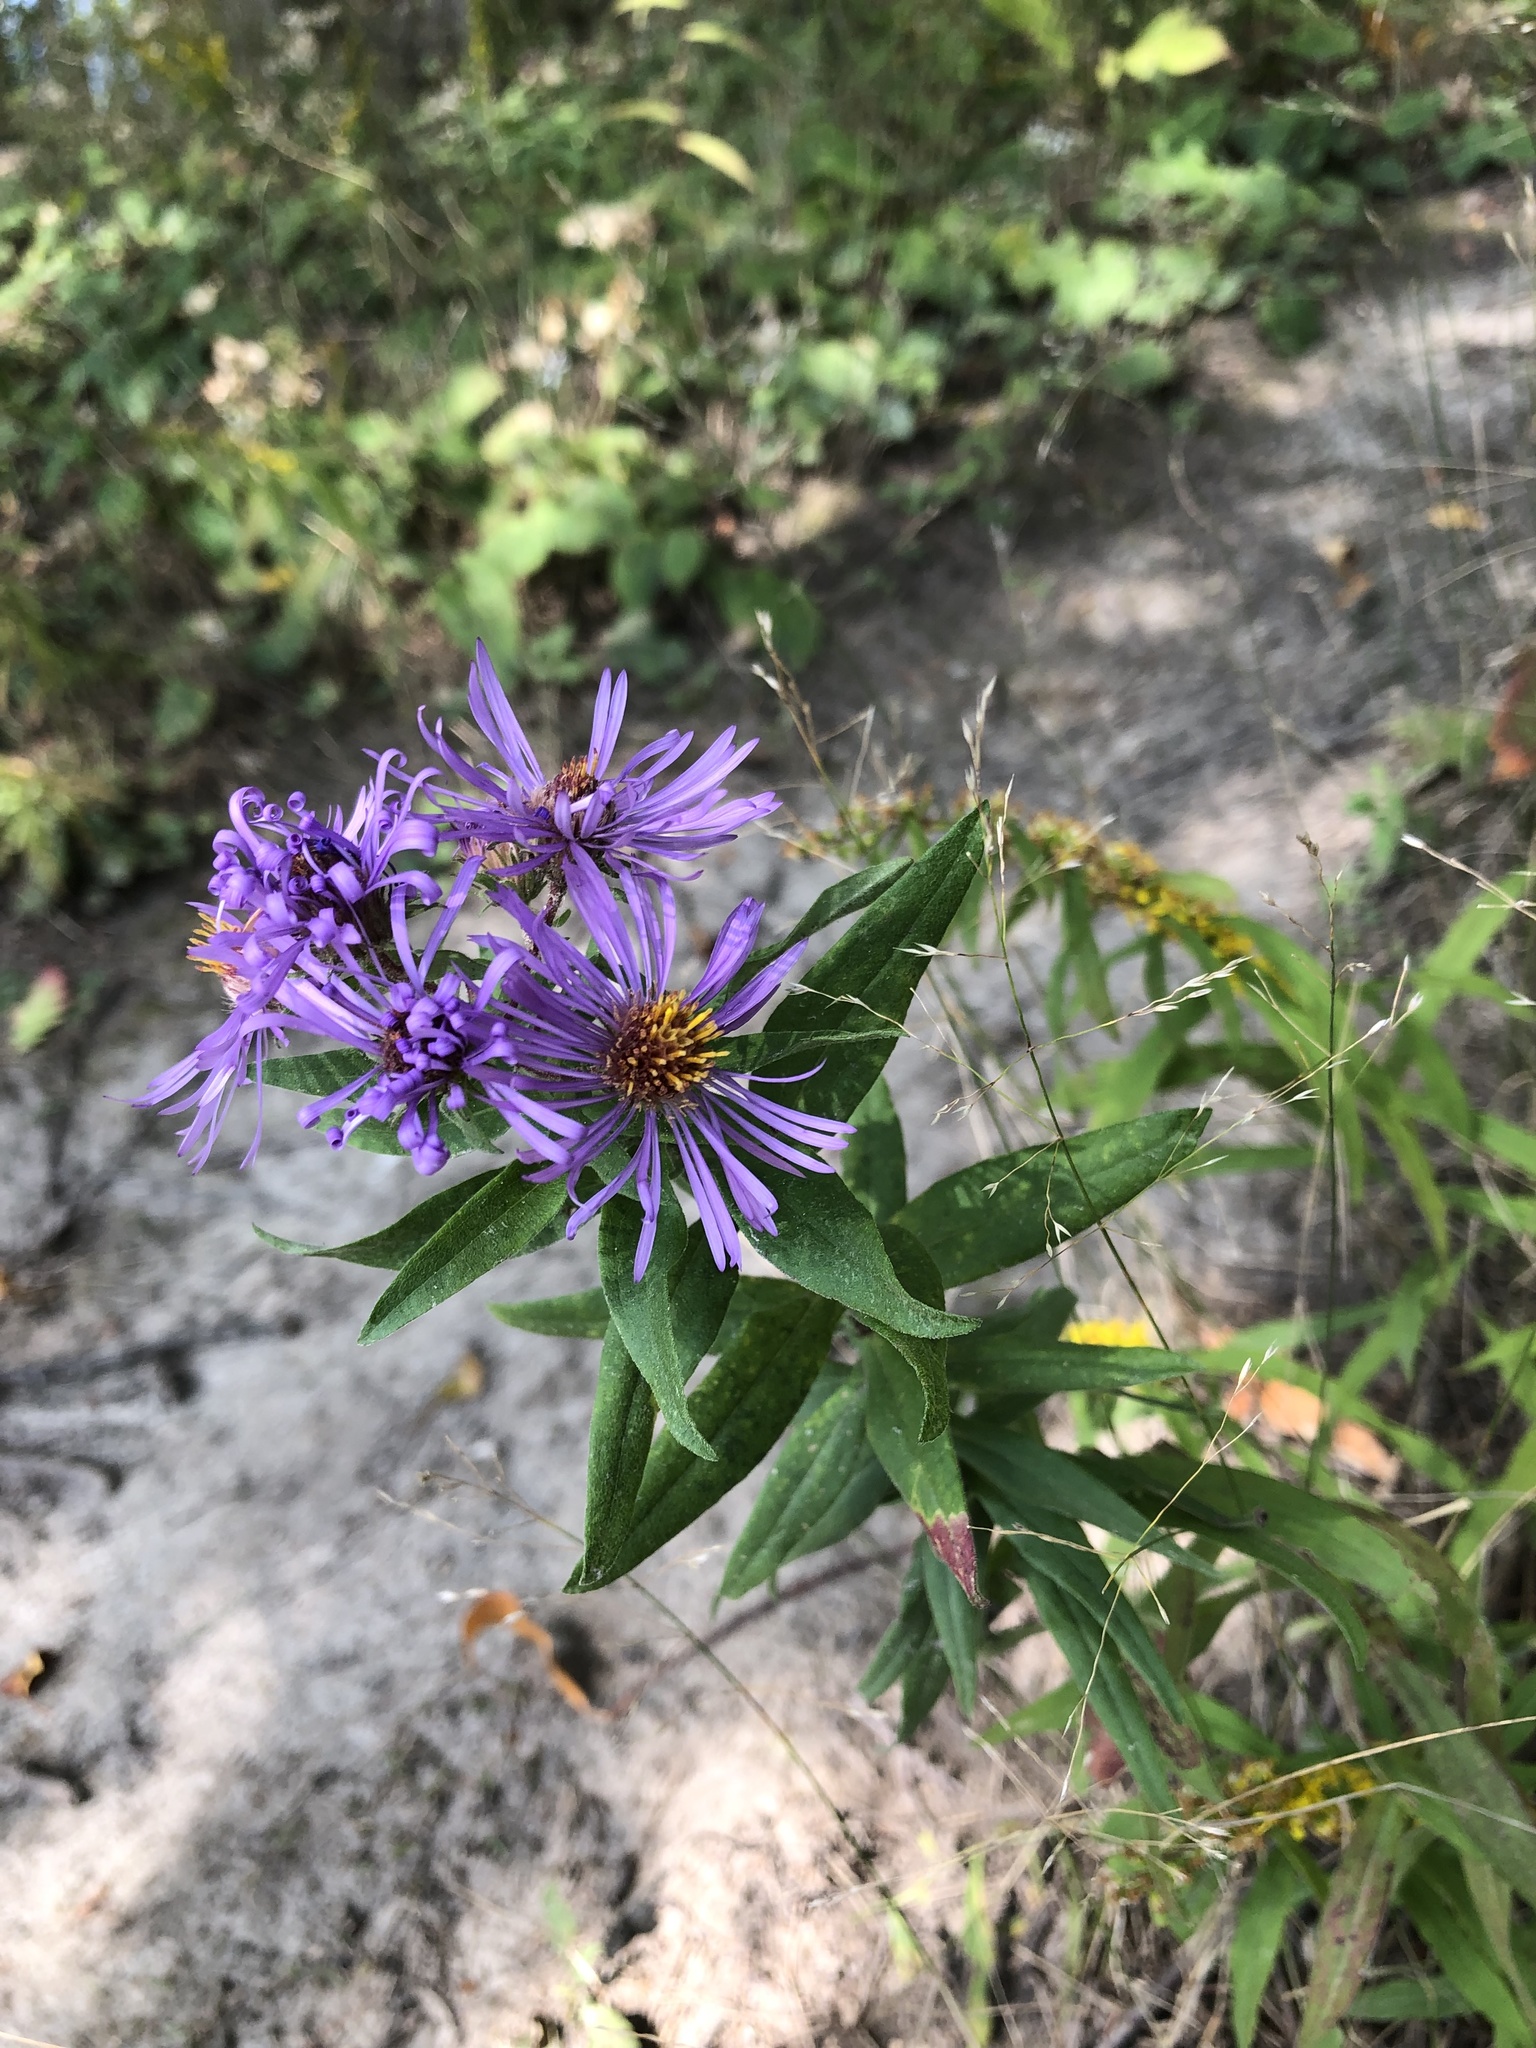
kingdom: Plantae
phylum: Tracheophyta
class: Magnoliopsida
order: Asterales
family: Asteraceae
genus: Symphyotrichum
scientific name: Symphyotrichum novae-angliae
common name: Michaelmas daisy
